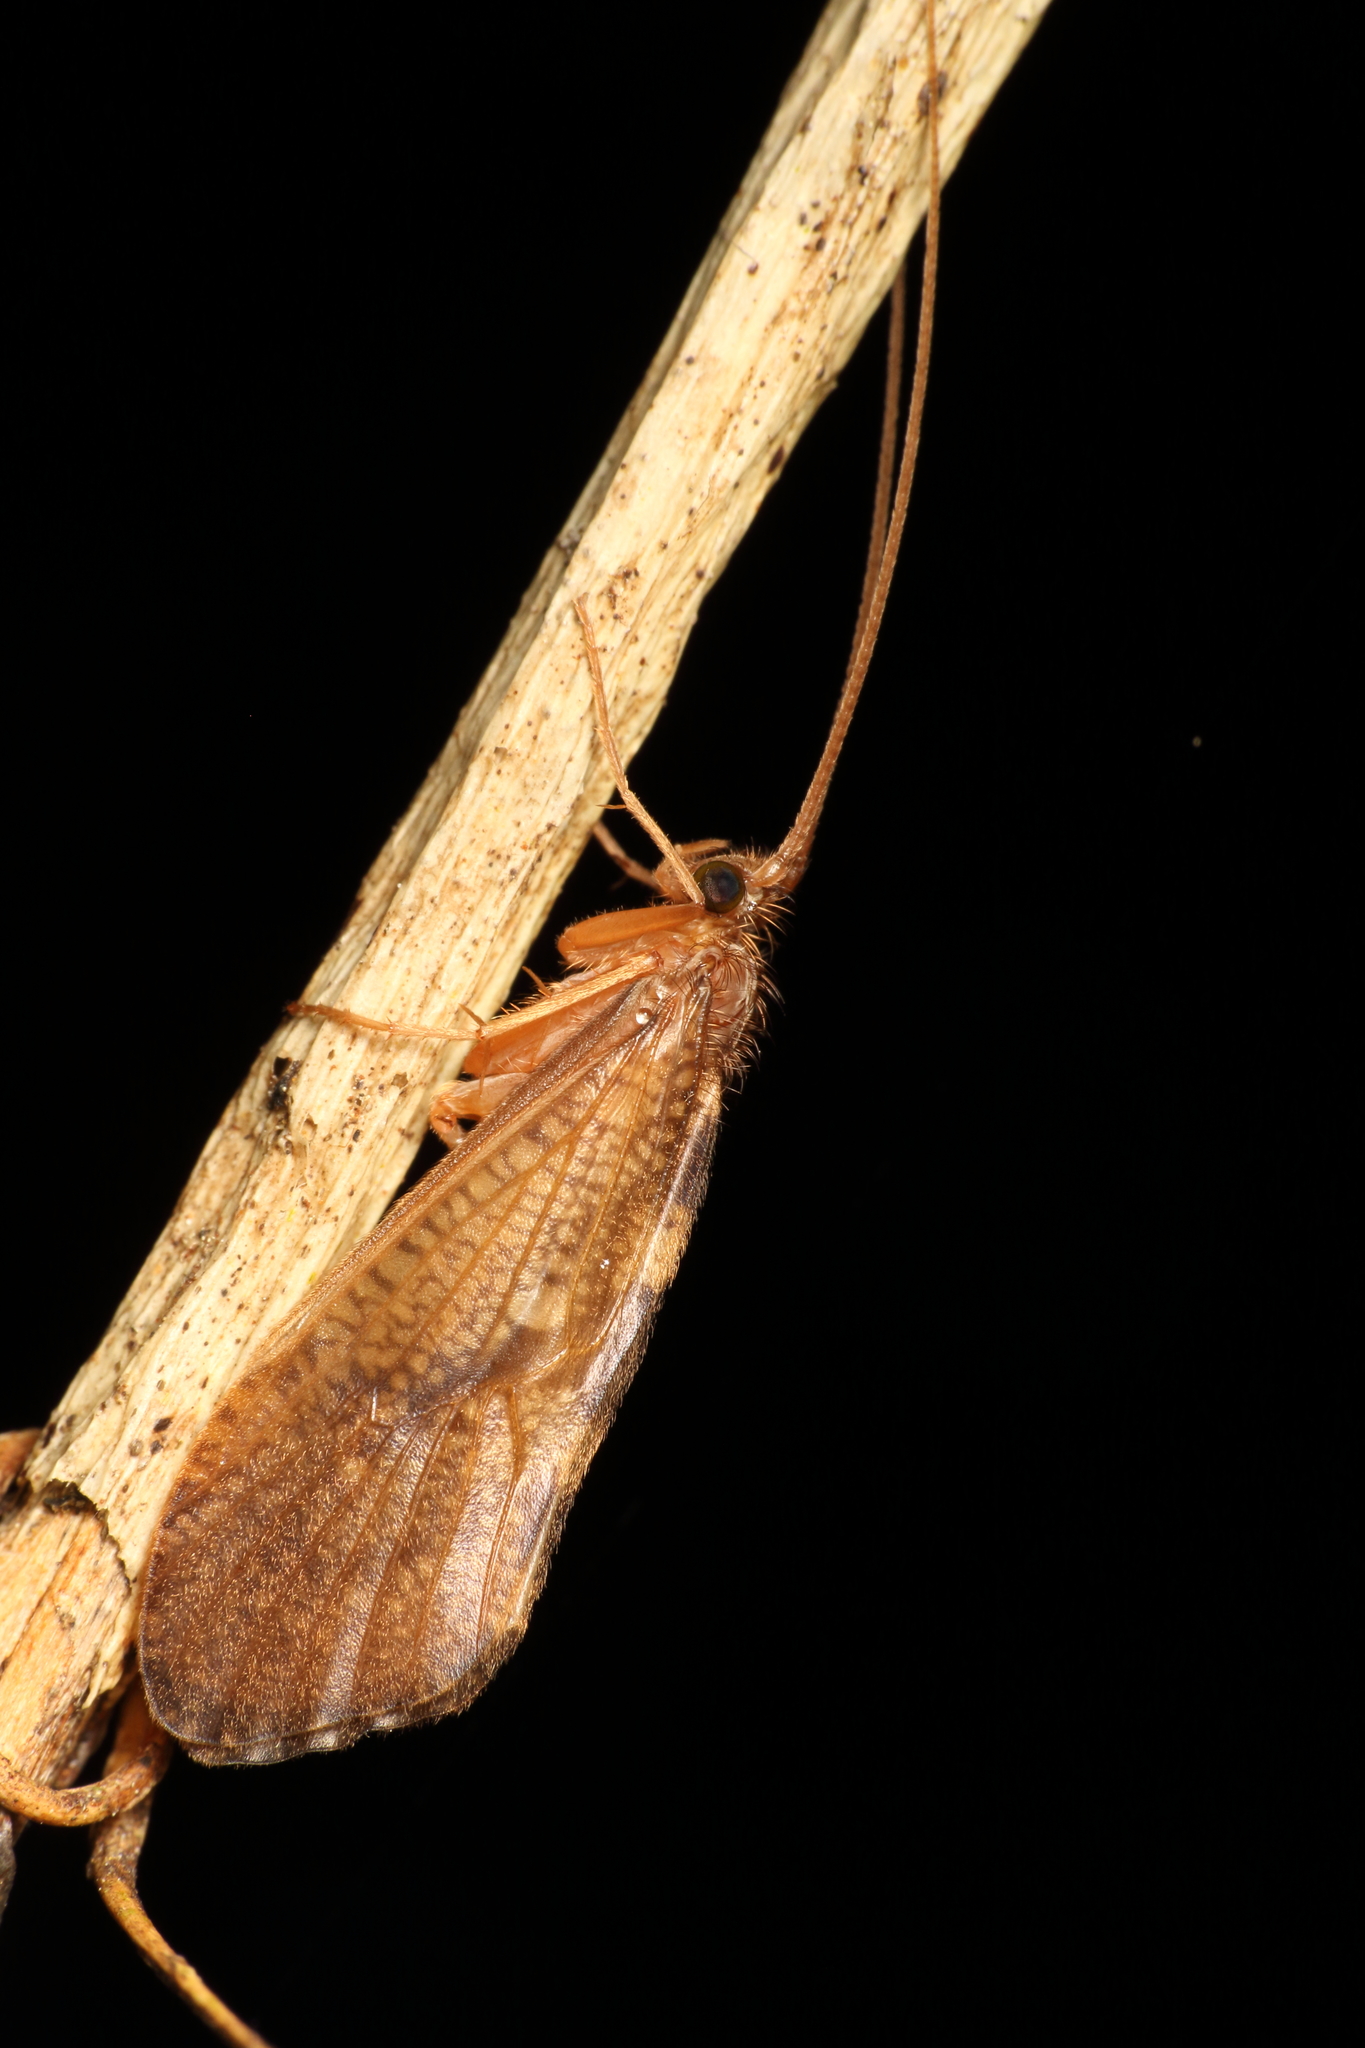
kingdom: Animalia
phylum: Arthropoda
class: Insecta
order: Trichoptera
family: Oeconesidae
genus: Oeconesus
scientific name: Oeconesus maori
